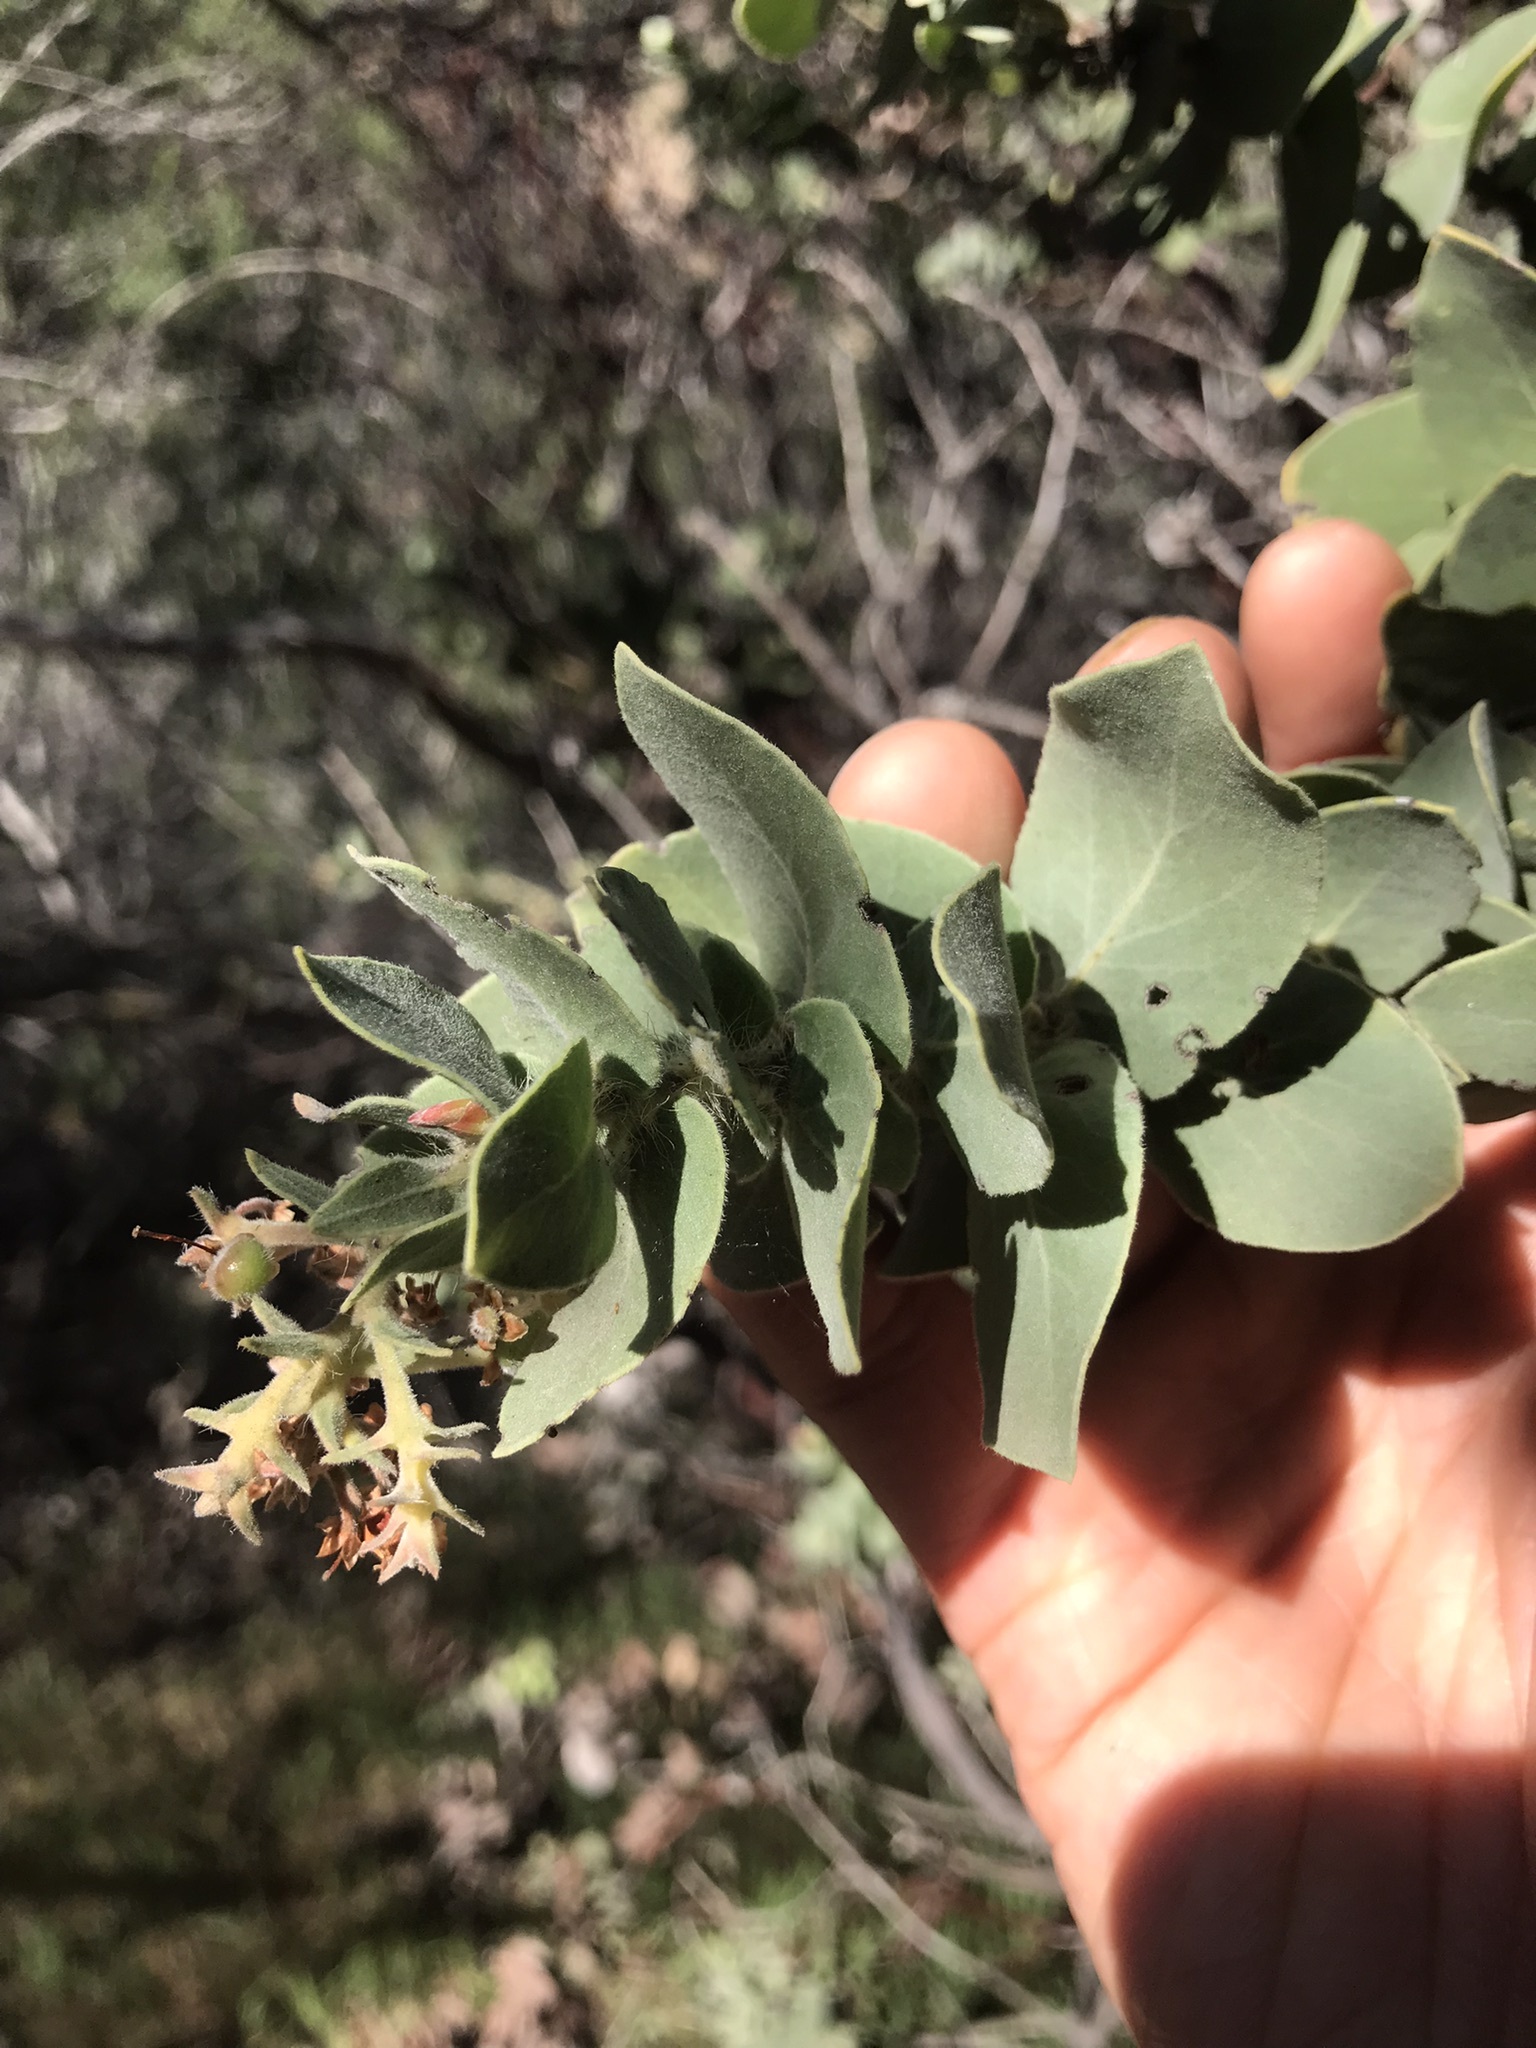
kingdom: Plantae
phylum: Tracheophyta
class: Magnoliopsida
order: Ericales
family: Ericaceae
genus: Arctostaphylos
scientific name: Arctostaphylos auriculata
